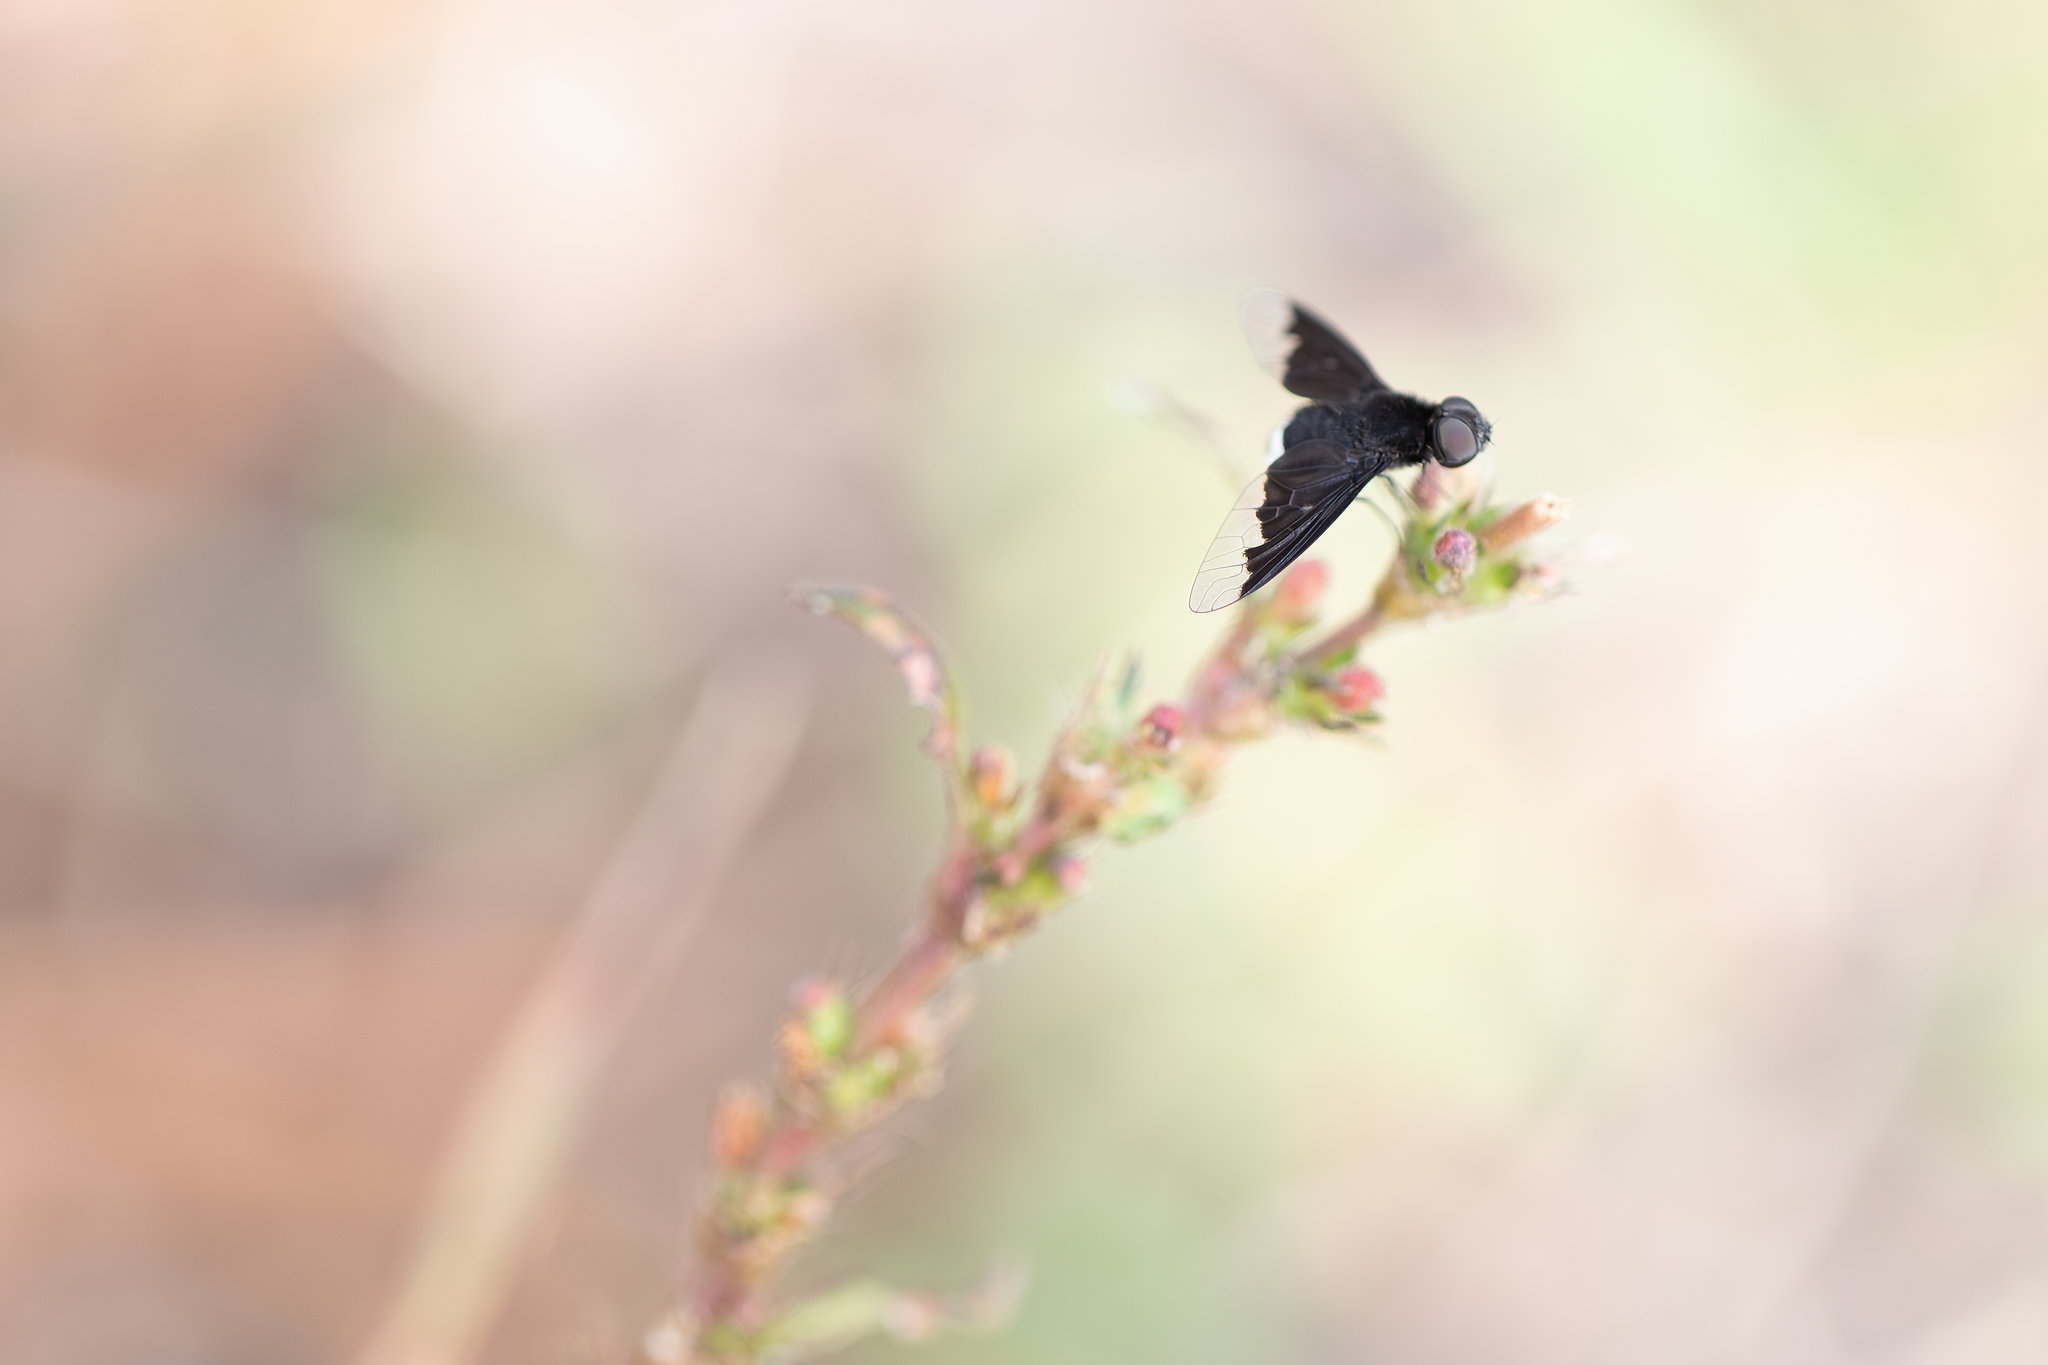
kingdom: Animalia
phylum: Arthropoda
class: Insecta
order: Diptera
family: Bombyliidae
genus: Anthrax
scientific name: Anthrax analis
